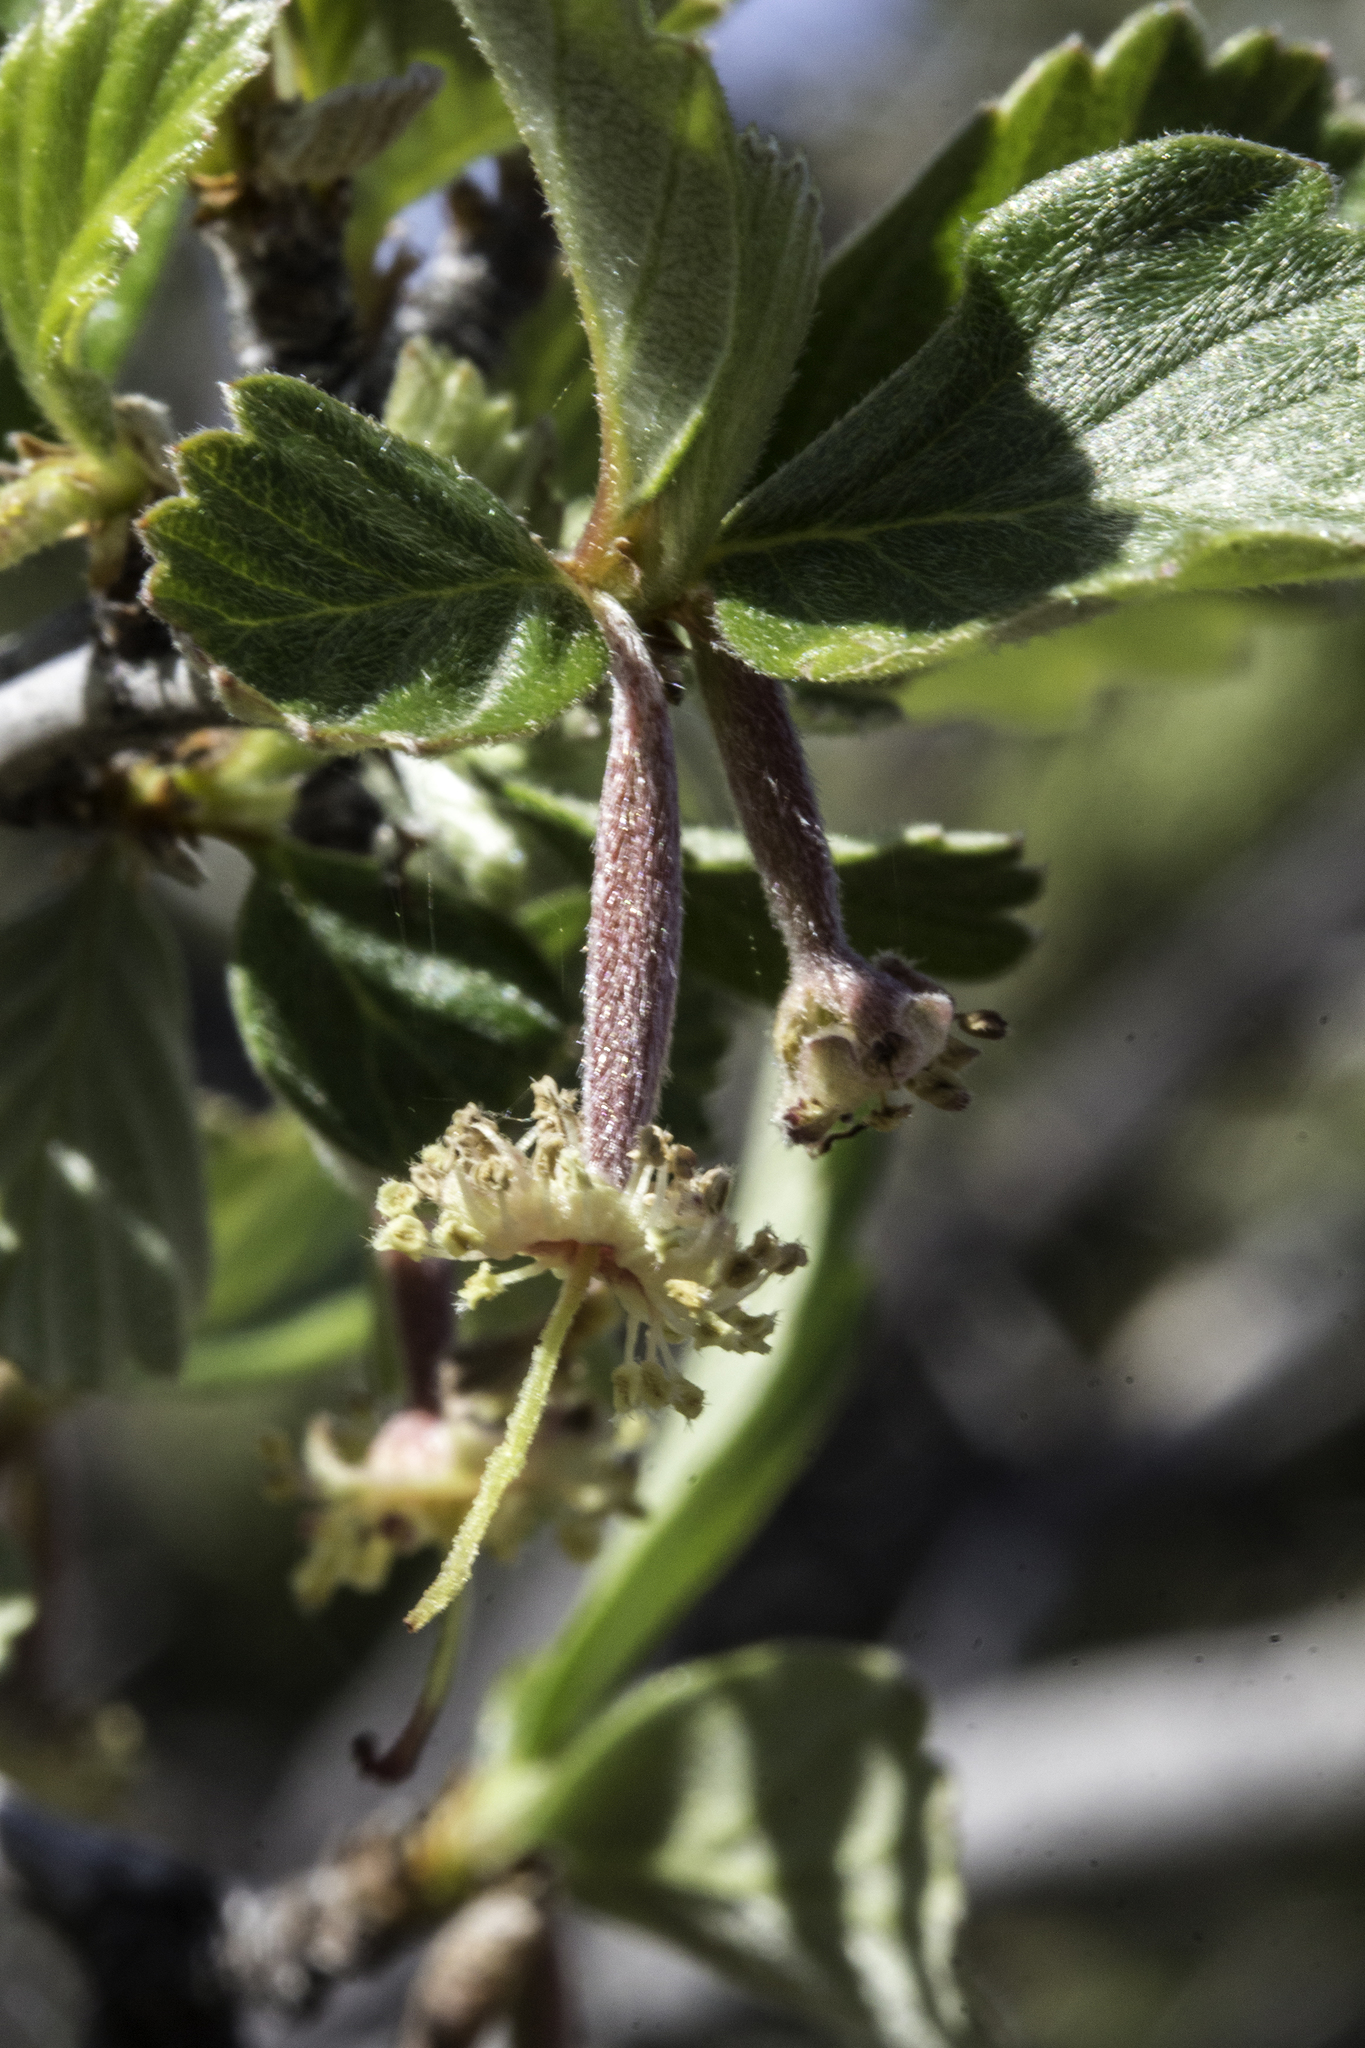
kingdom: Plantae
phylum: Tracheophyta
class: Magnoliopsida
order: Rosales
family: Rosaceae
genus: Cercocarpus
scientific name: Cercocarpus montanus
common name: Alder-leaf cercocarpus
